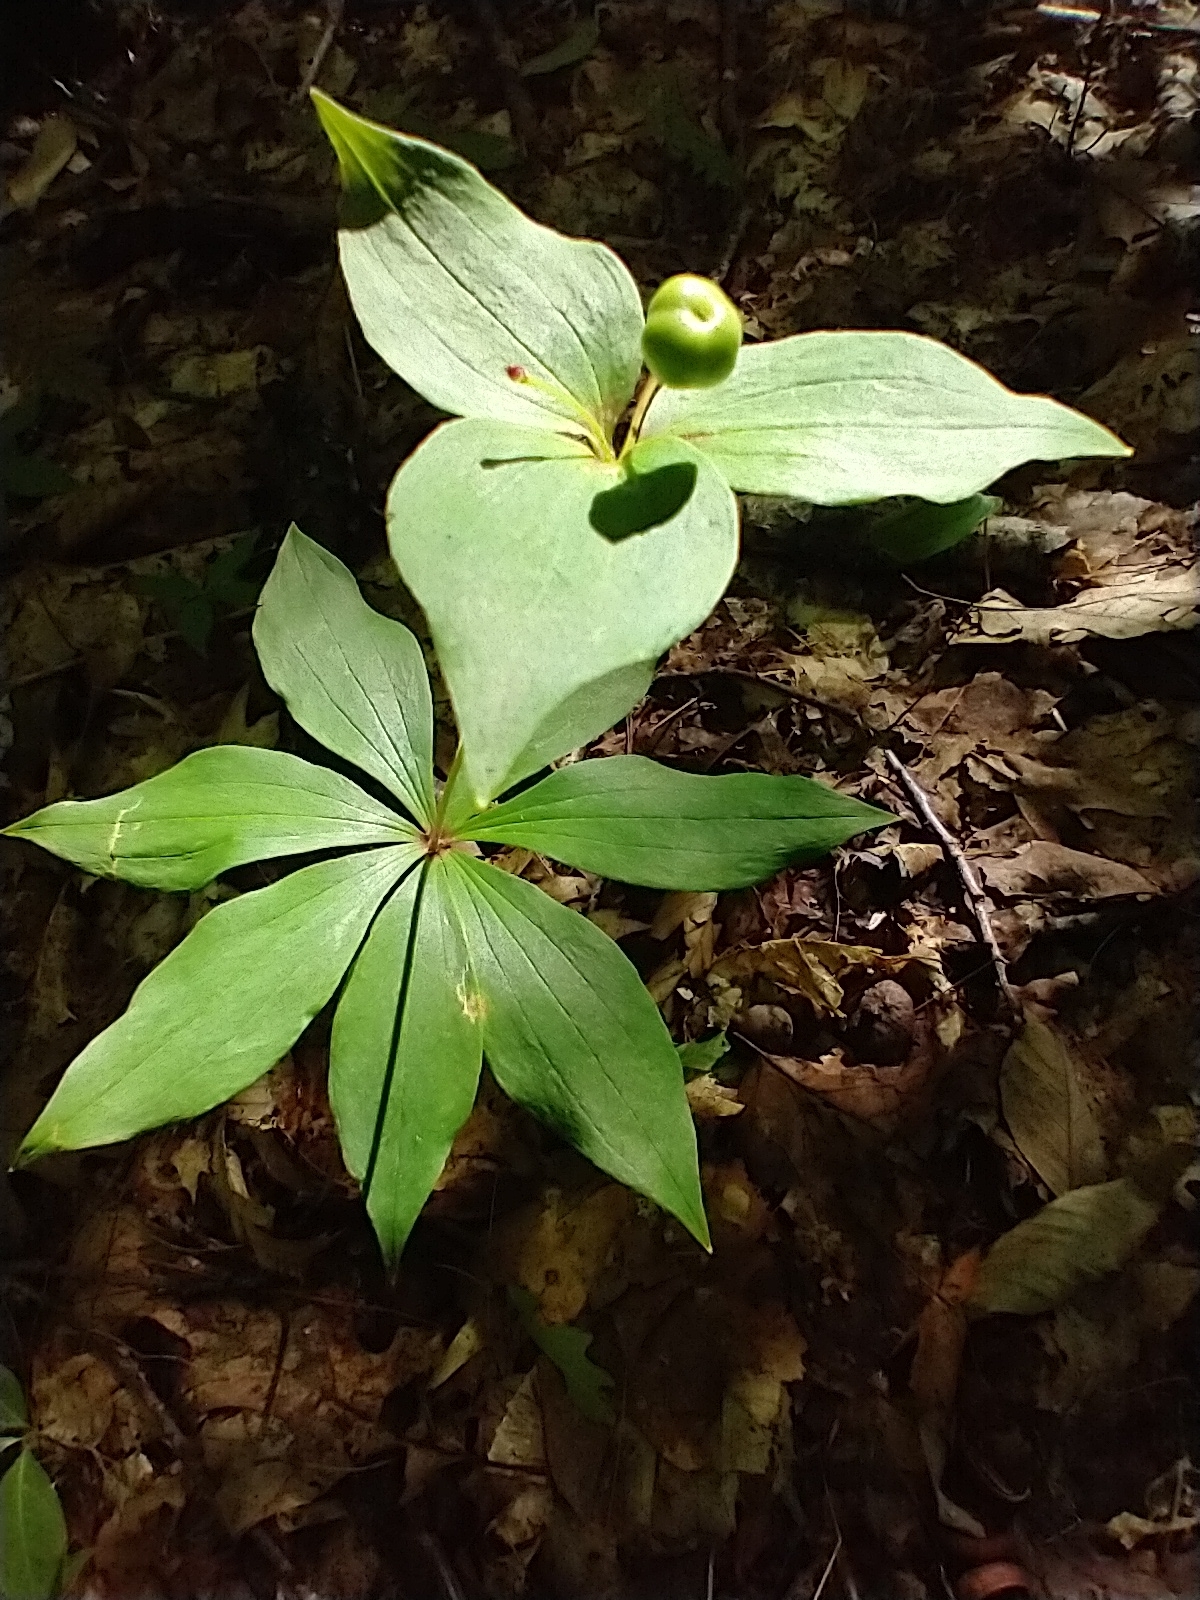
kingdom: Plantae
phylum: Tracheophyta
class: Liliopsida
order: Liliales
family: Liliaceae
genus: Medeola
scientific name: Medeola virginiana
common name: Indian cucumber-root
